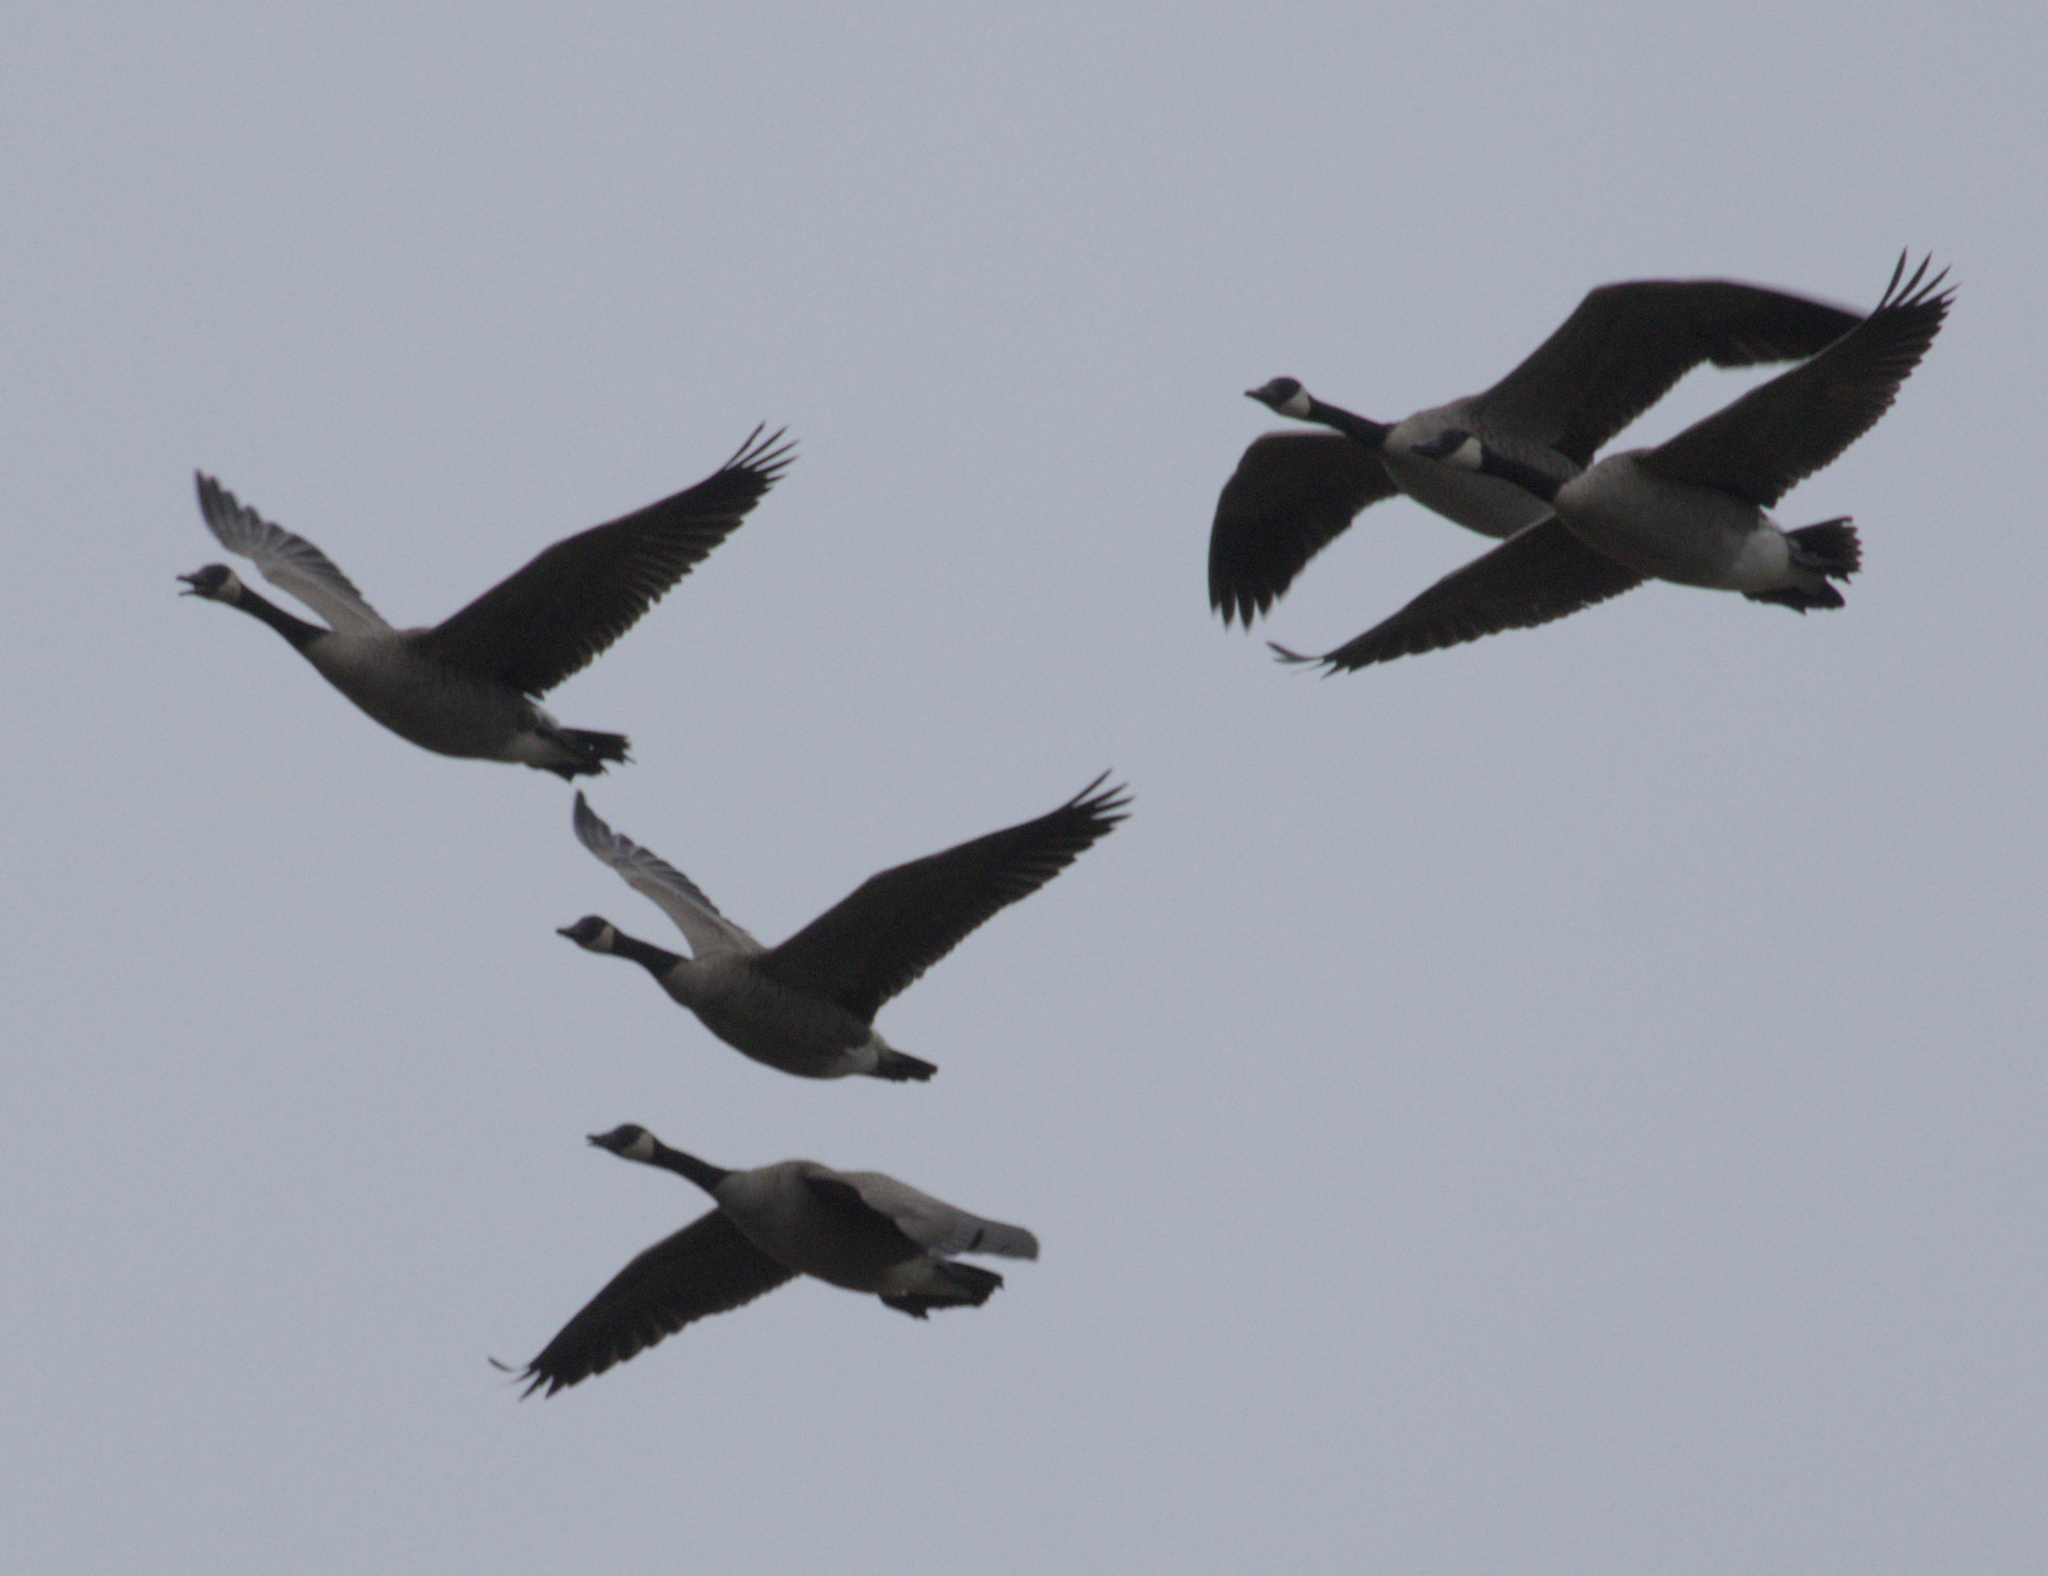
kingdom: Animalia
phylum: Chordata
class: Aves
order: Anseriformes
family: Anatidae
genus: Branta
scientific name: Branta canadensis
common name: Canada goose
